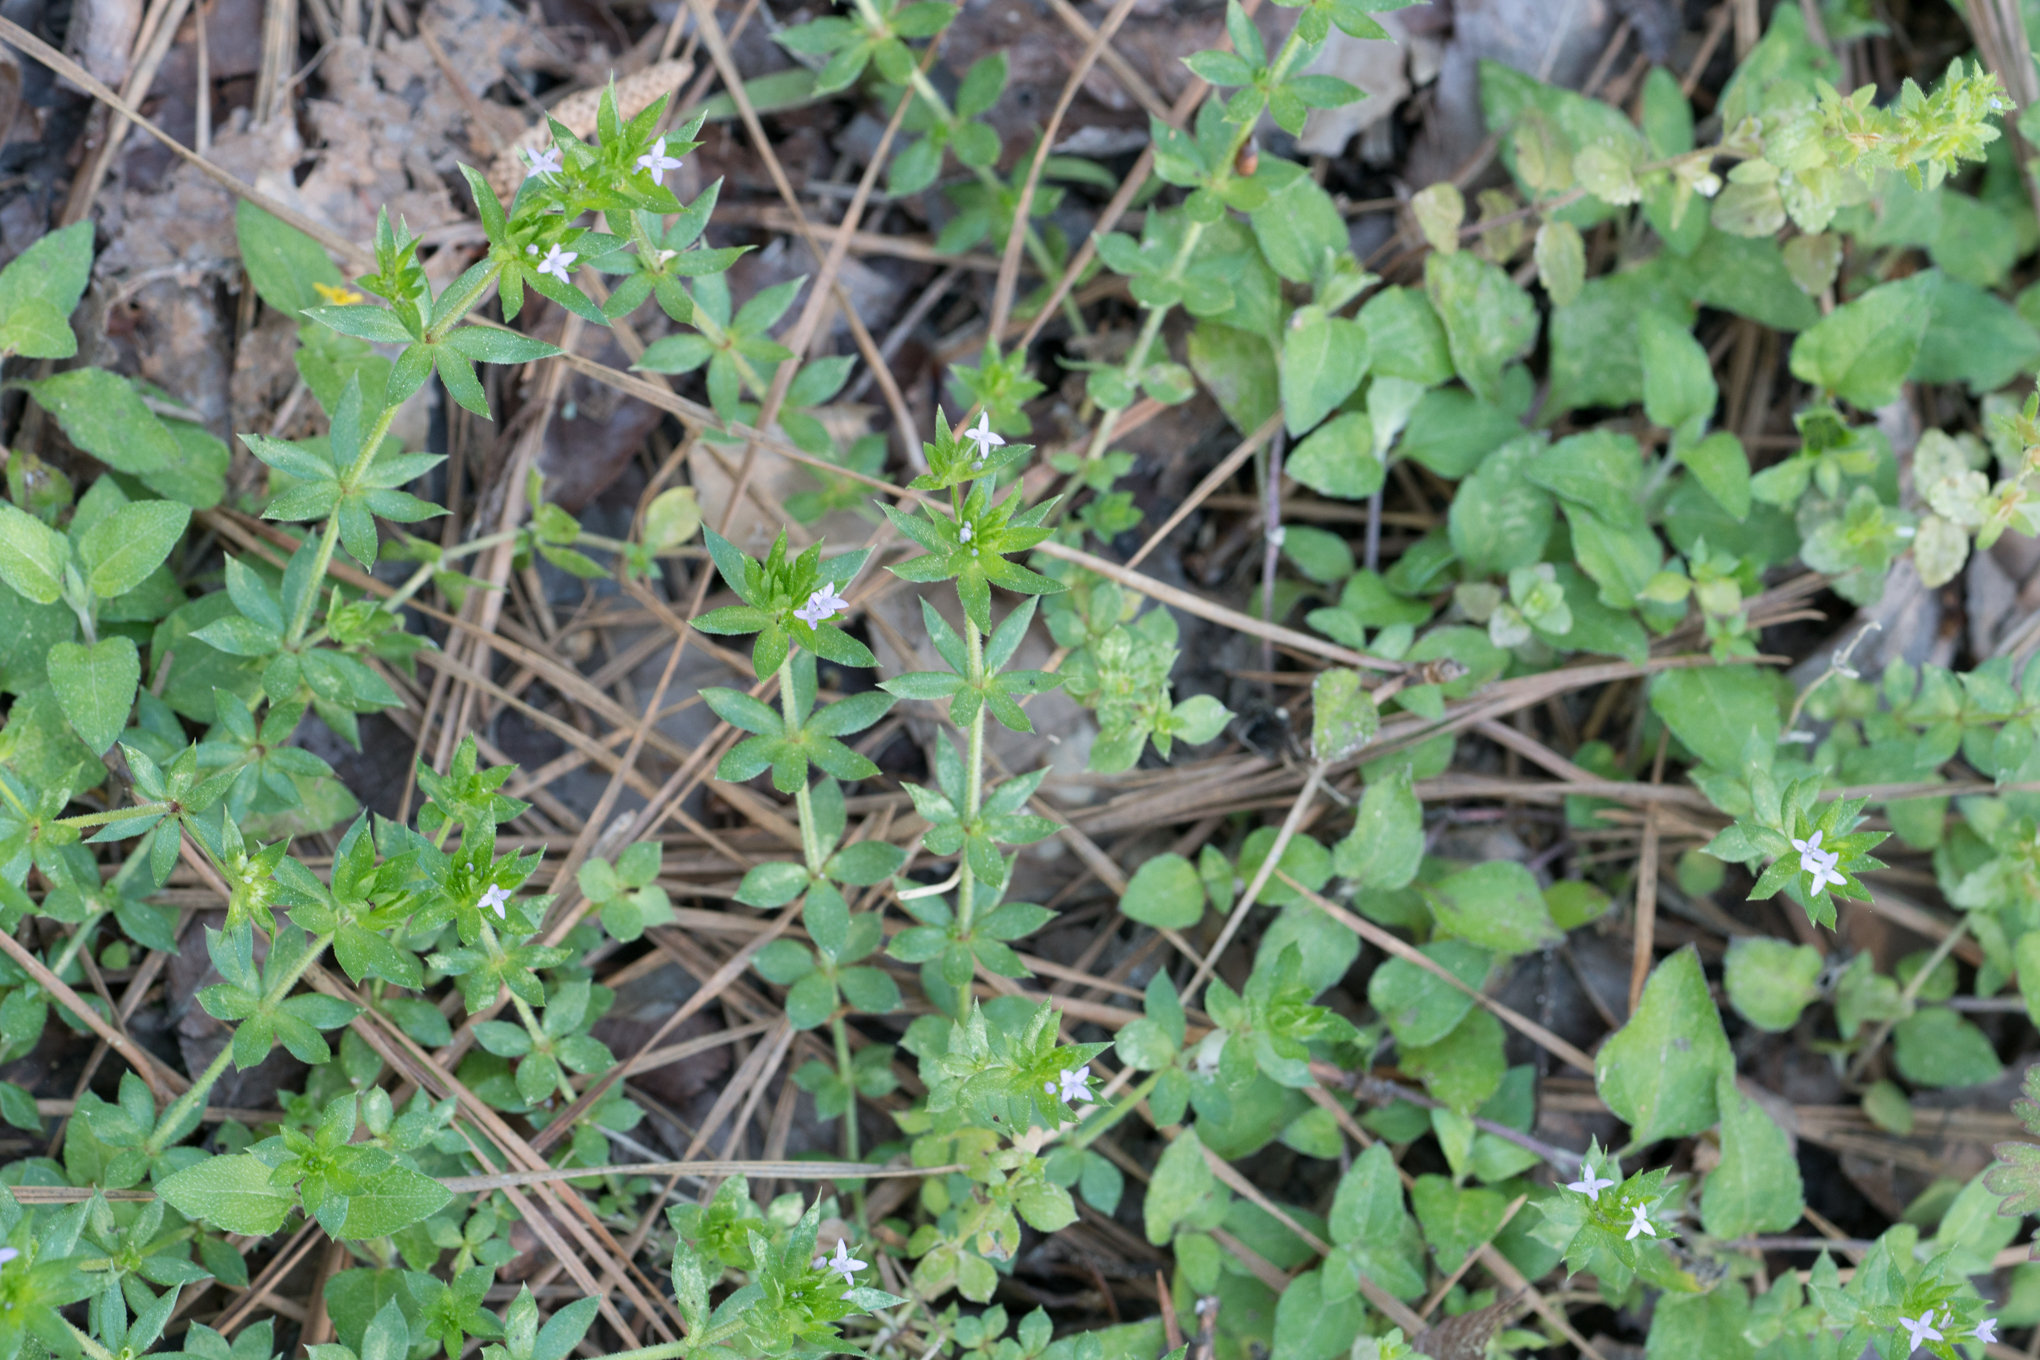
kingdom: Plantae
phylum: Tracheophyta
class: Magnoliopsida
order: Gentianales
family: Rubiaceae
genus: Sherardia
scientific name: Sherardia arvensis
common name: Field madder
